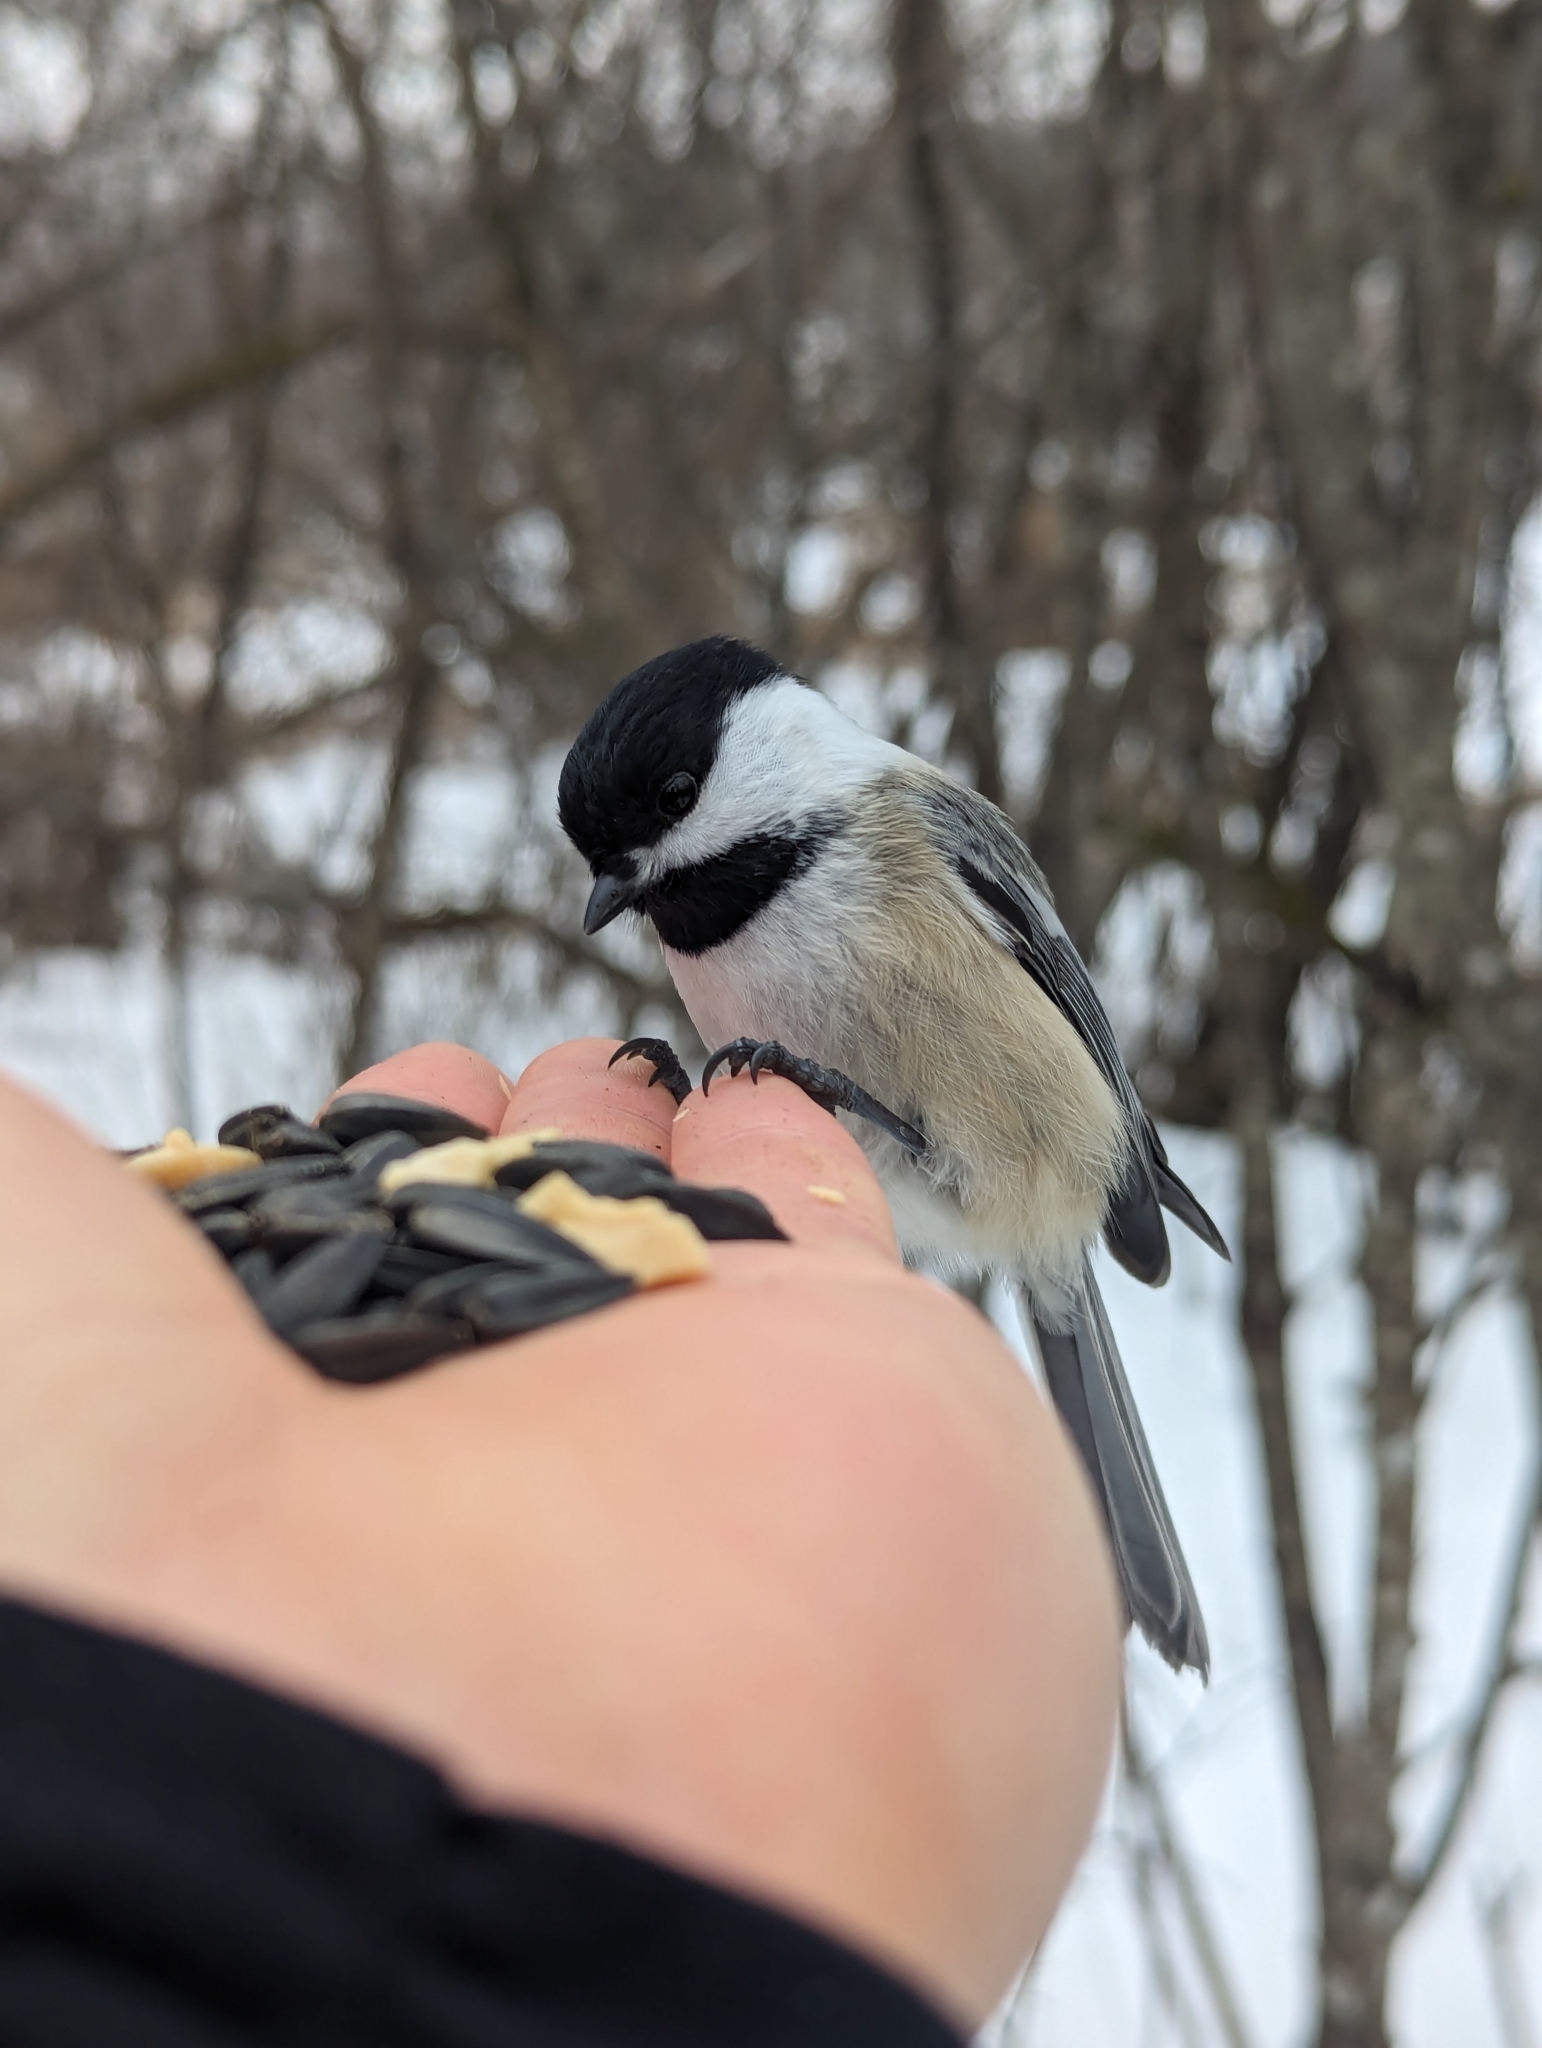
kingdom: Animalia
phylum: Chordata
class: Aves
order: Passeriformes
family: Paridae
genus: Poecile
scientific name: Poecile atricapillus
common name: Black-capped chickadee
